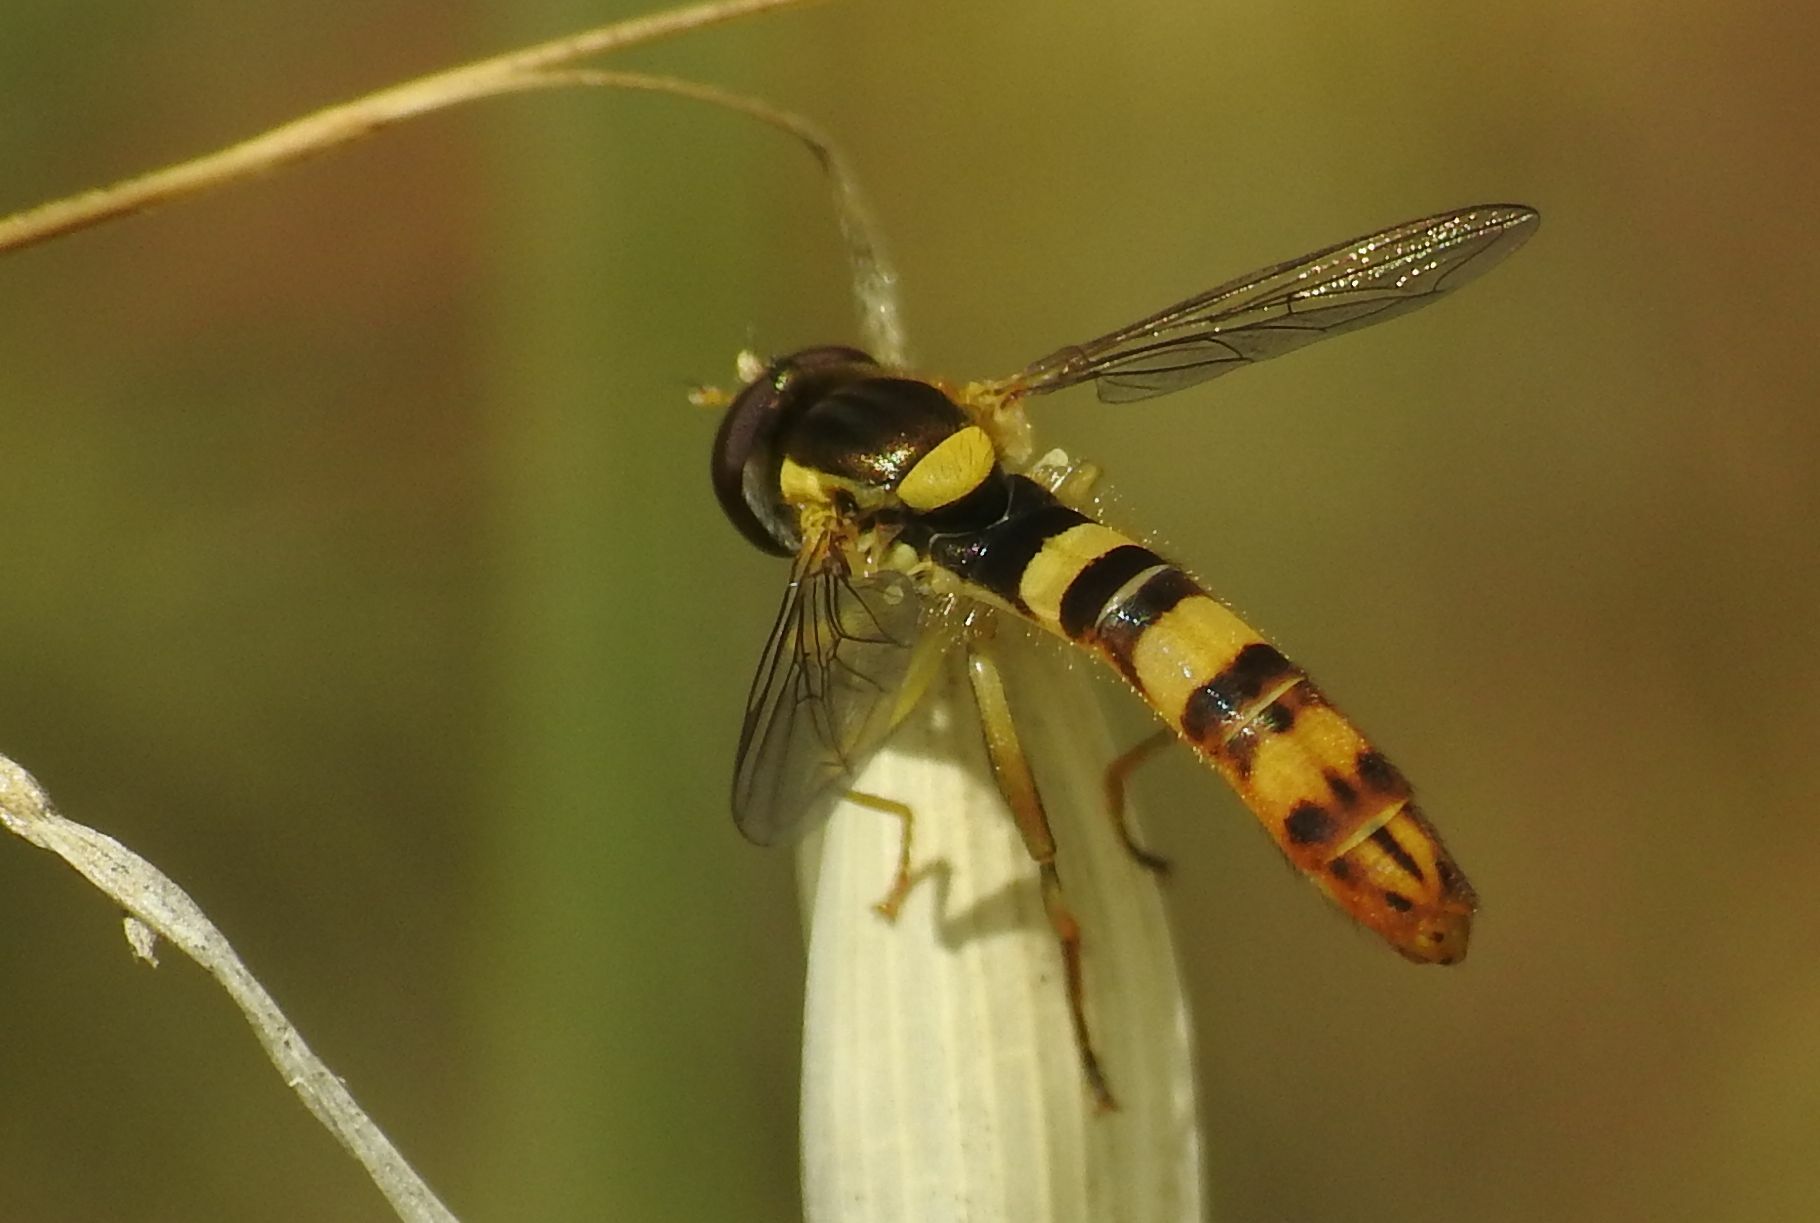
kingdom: Animalia
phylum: Arthropoda
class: Insecta
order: Diptera
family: Syrphidae
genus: Sphaerophoria
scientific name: Sphaerophoria scripta
